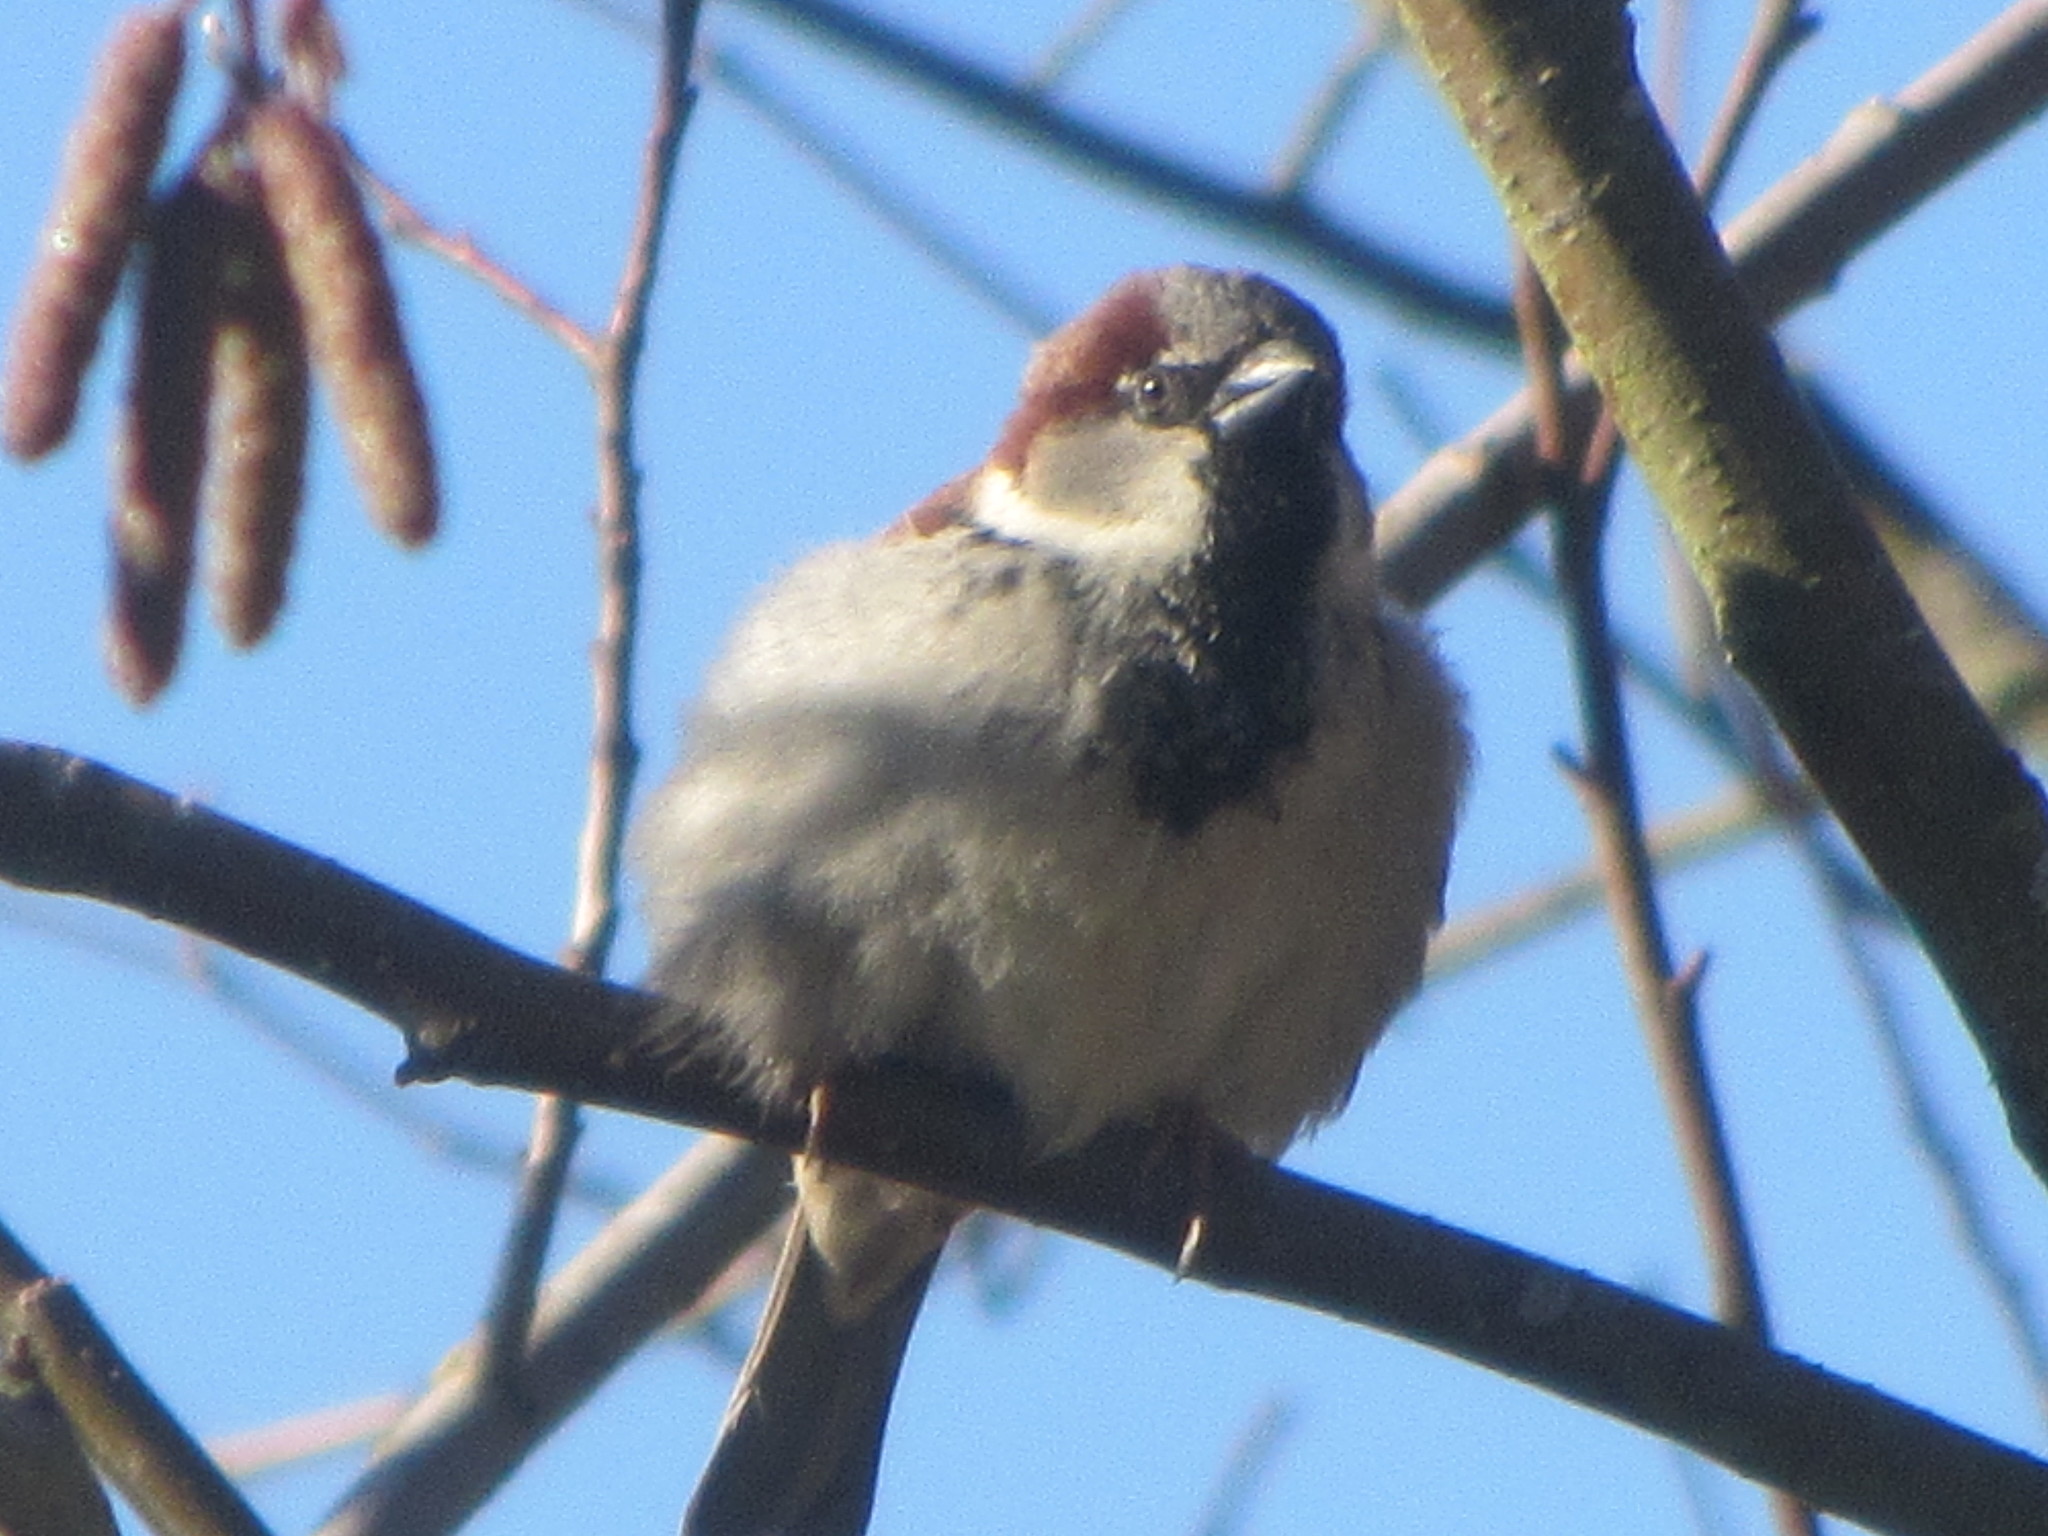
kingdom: Animalia
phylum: Chordata
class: Aves
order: Passeriformes
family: Passeridae
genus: Passer
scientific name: Passer domesticus
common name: House sparrow
